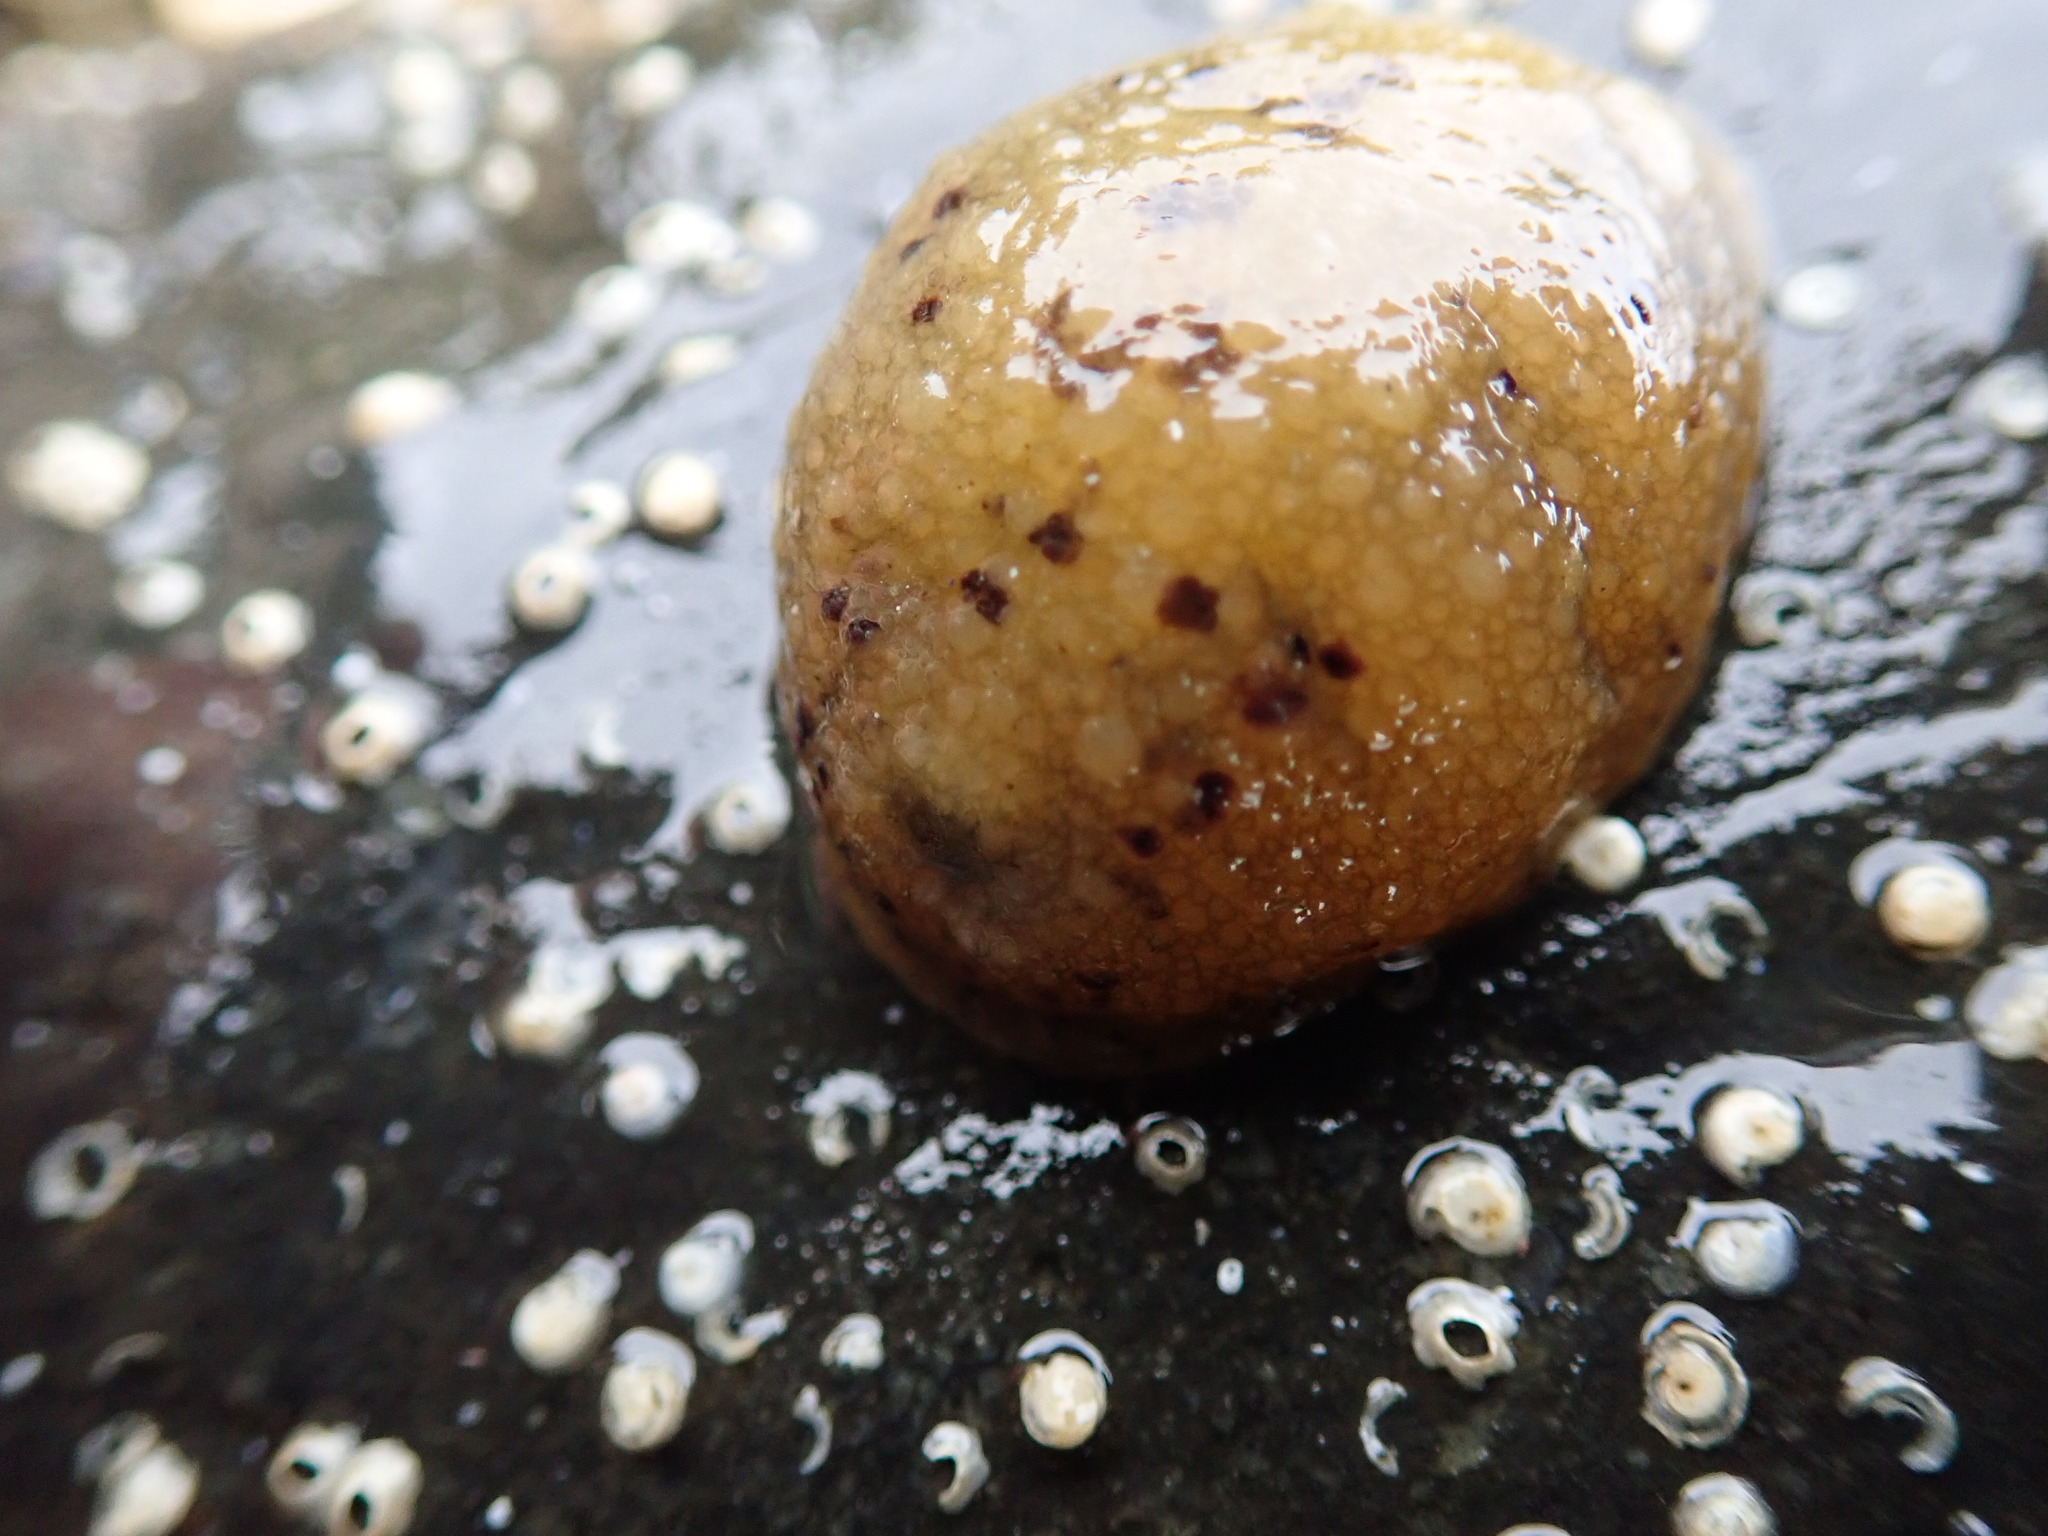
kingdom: Animalia
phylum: Mollusca
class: Gastropoda
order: Nudibranchia
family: Dorididae
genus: Doris
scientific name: Doris montereyensis
